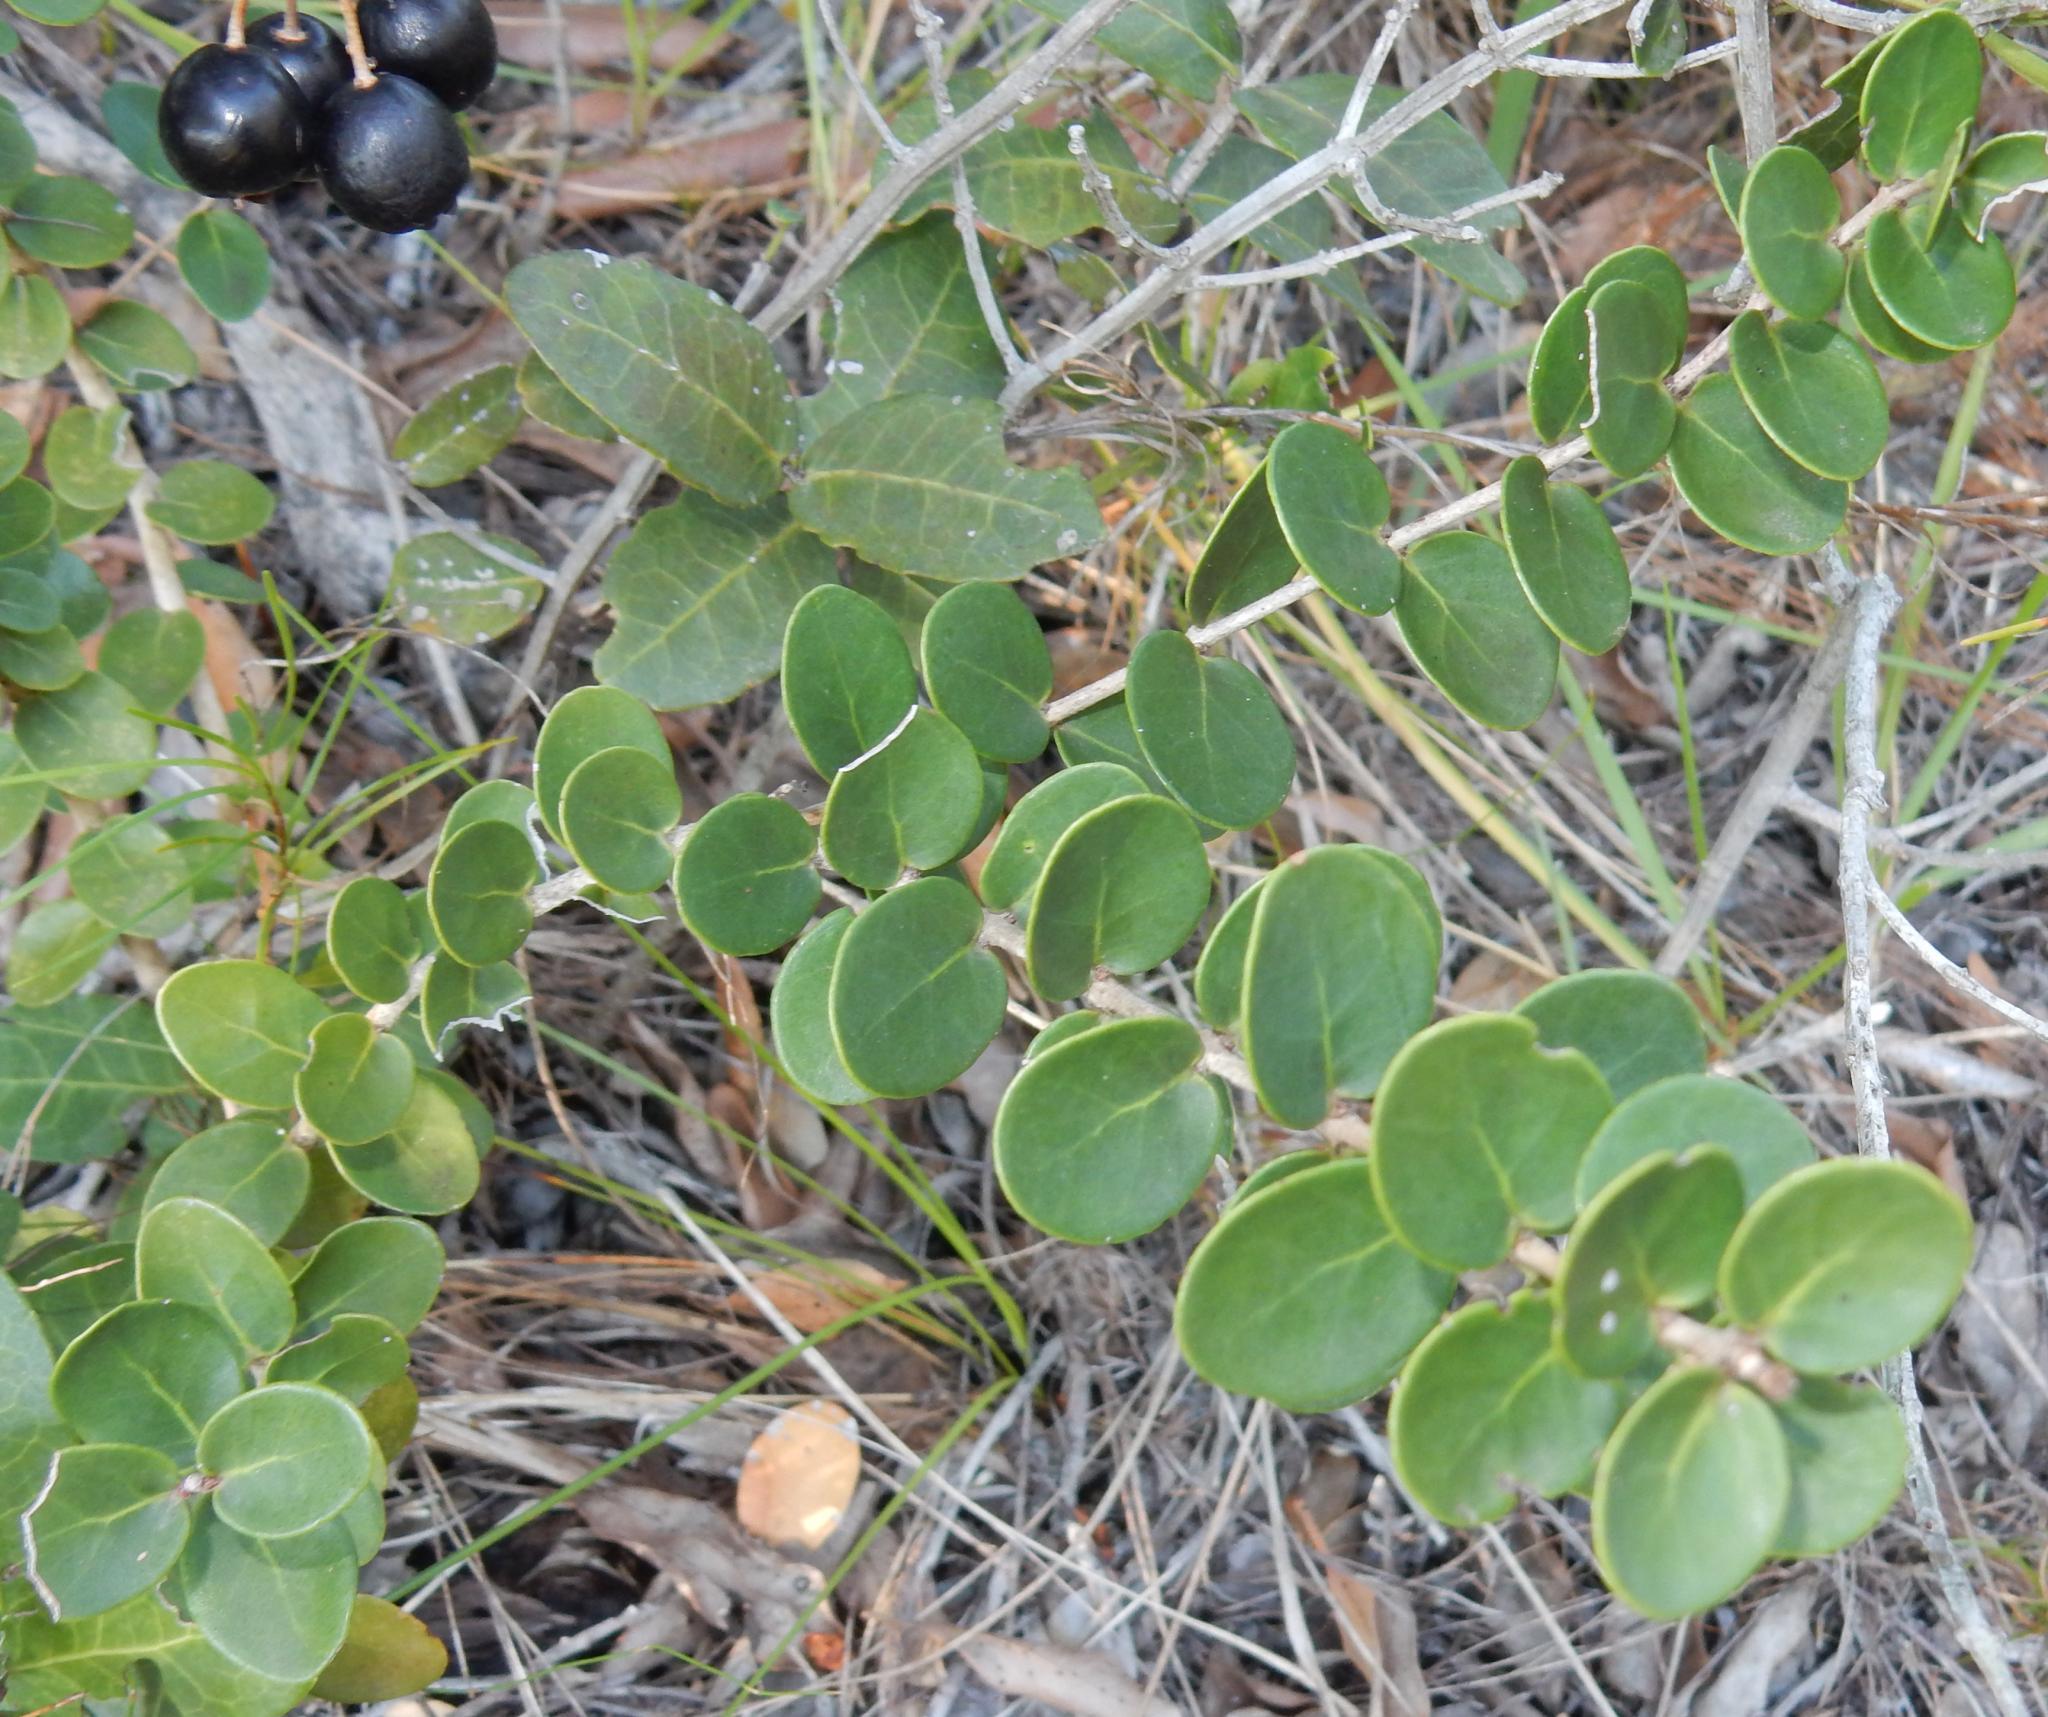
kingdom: Plantae
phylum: Tracheophyta
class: Magnoliopsida
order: Myrtales
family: Myrtaceae
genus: Eugenia
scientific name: Eugenia capensis
